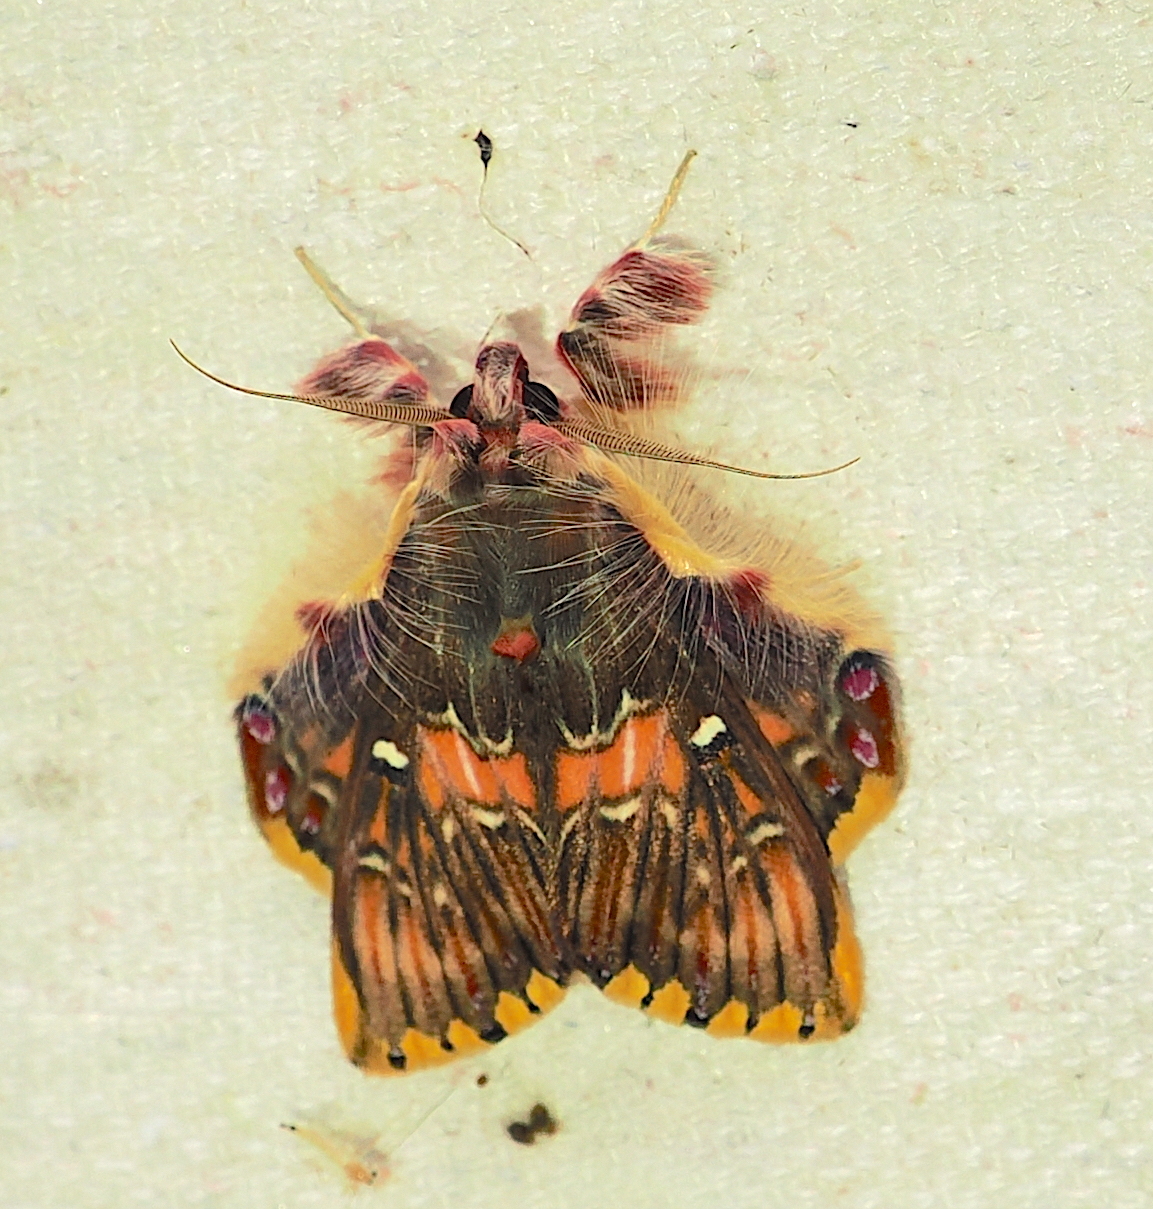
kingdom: Animalia
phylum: Arthropoda
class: Insecta
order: Lepidoptera
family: Erebidae
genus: Sosxetra
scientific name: Sosxetra grata
